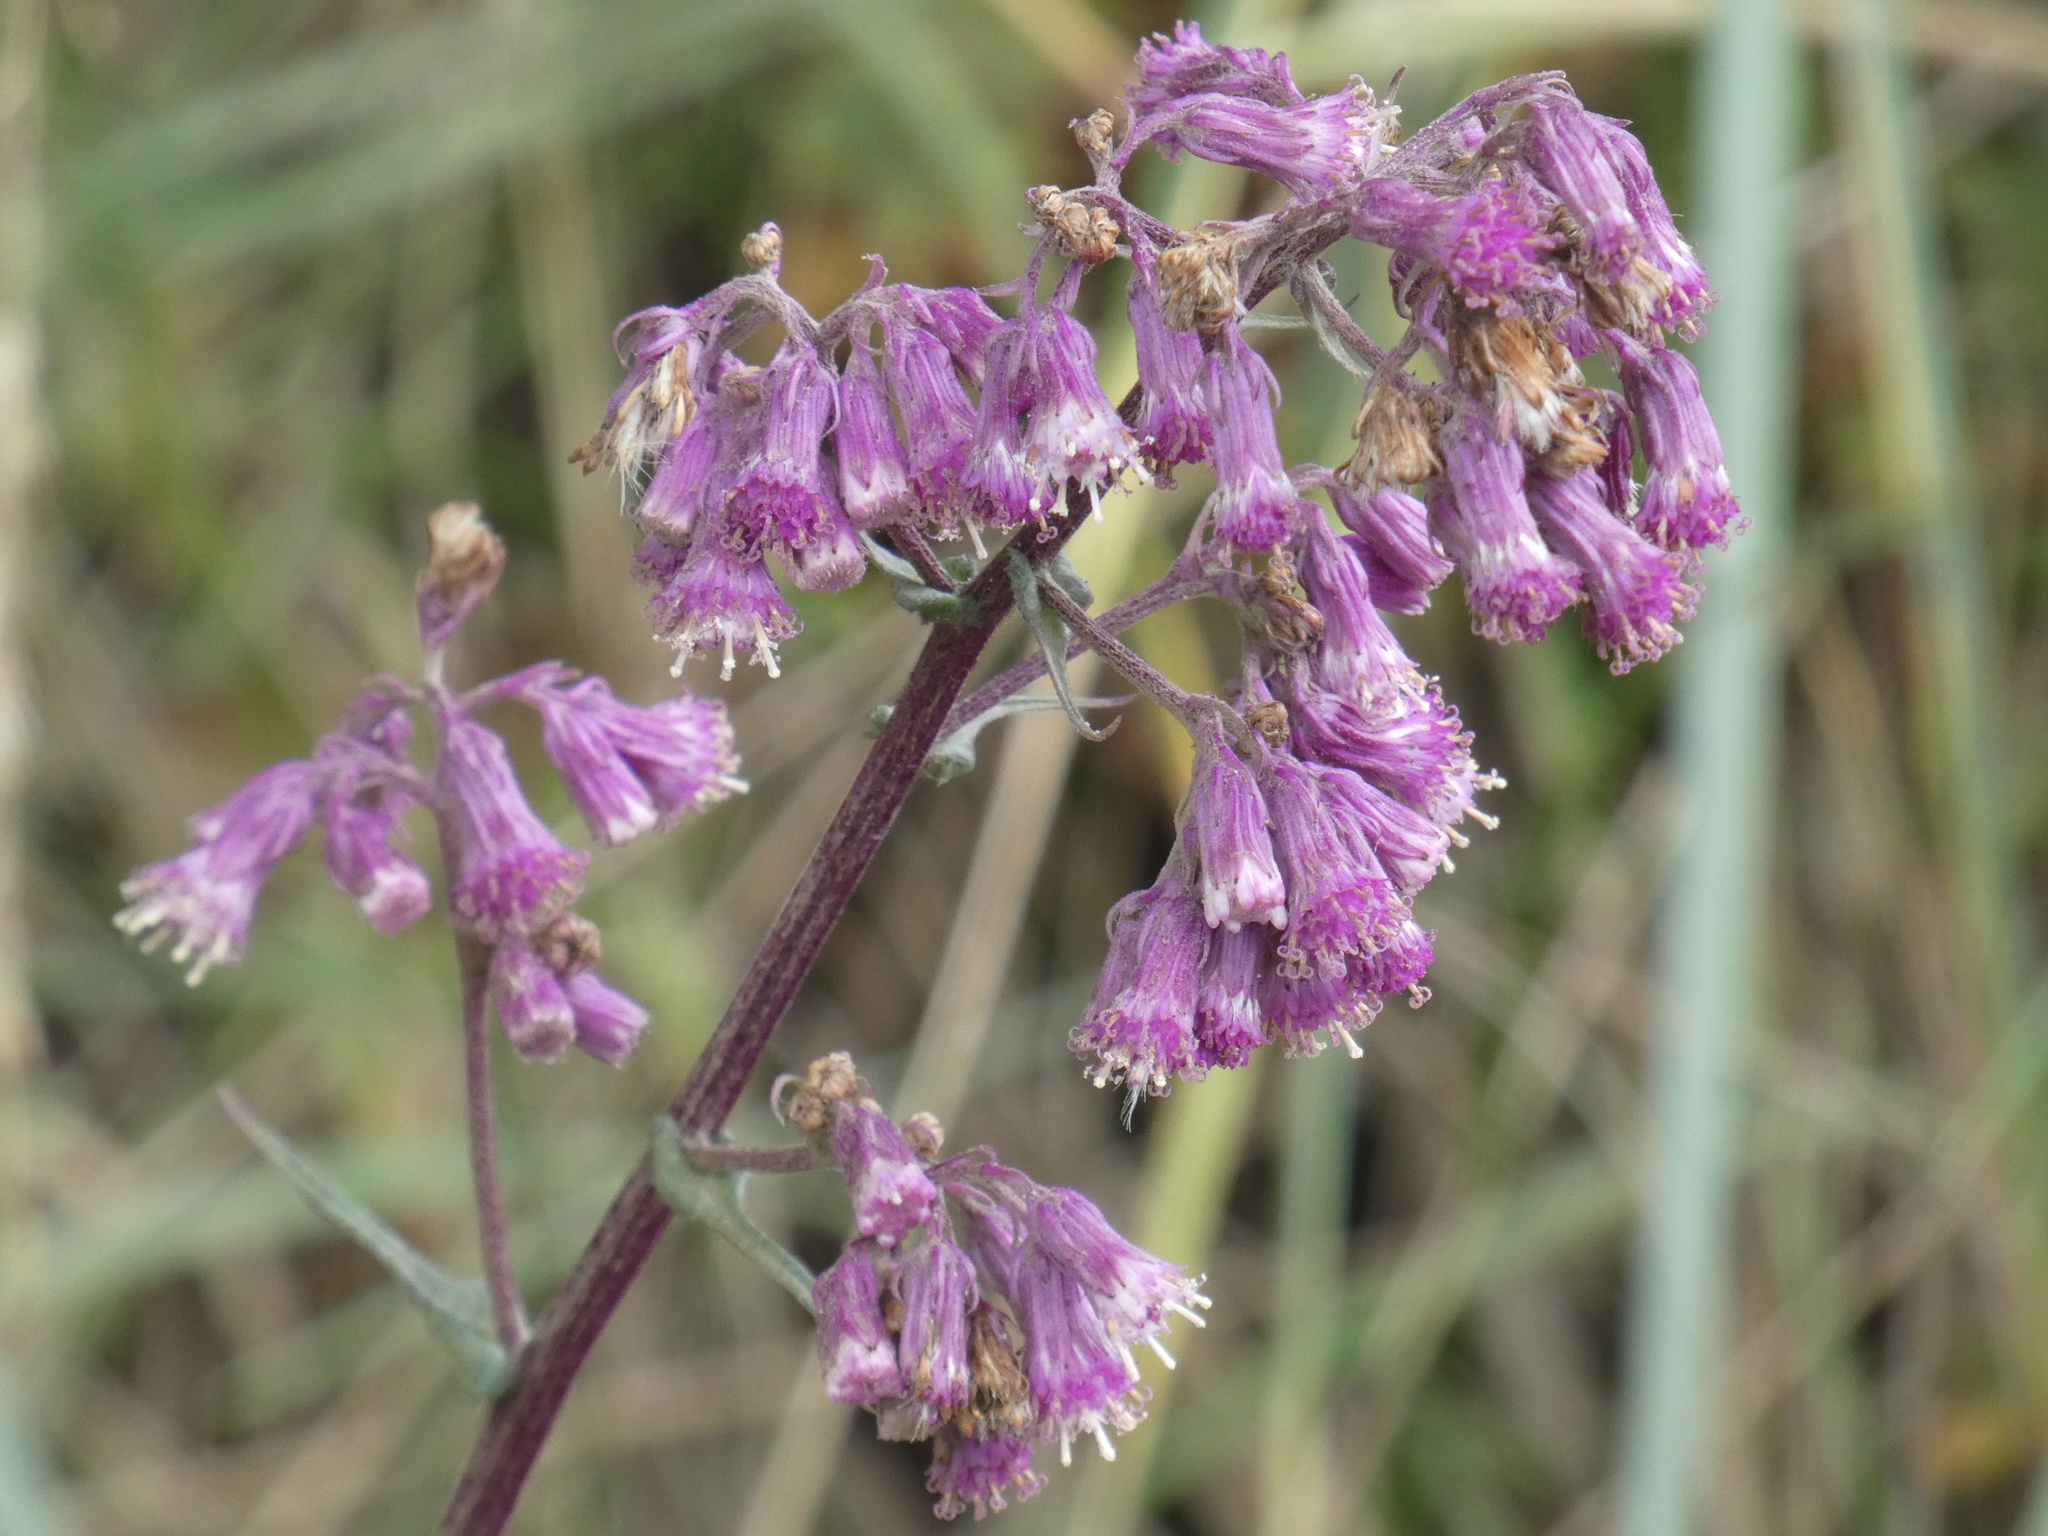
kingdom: Plantae
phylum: Tracheophyta
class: Magnoliopsida
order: Asterales
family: Asteraceae
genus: Senecio
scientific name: Senecio callosus
